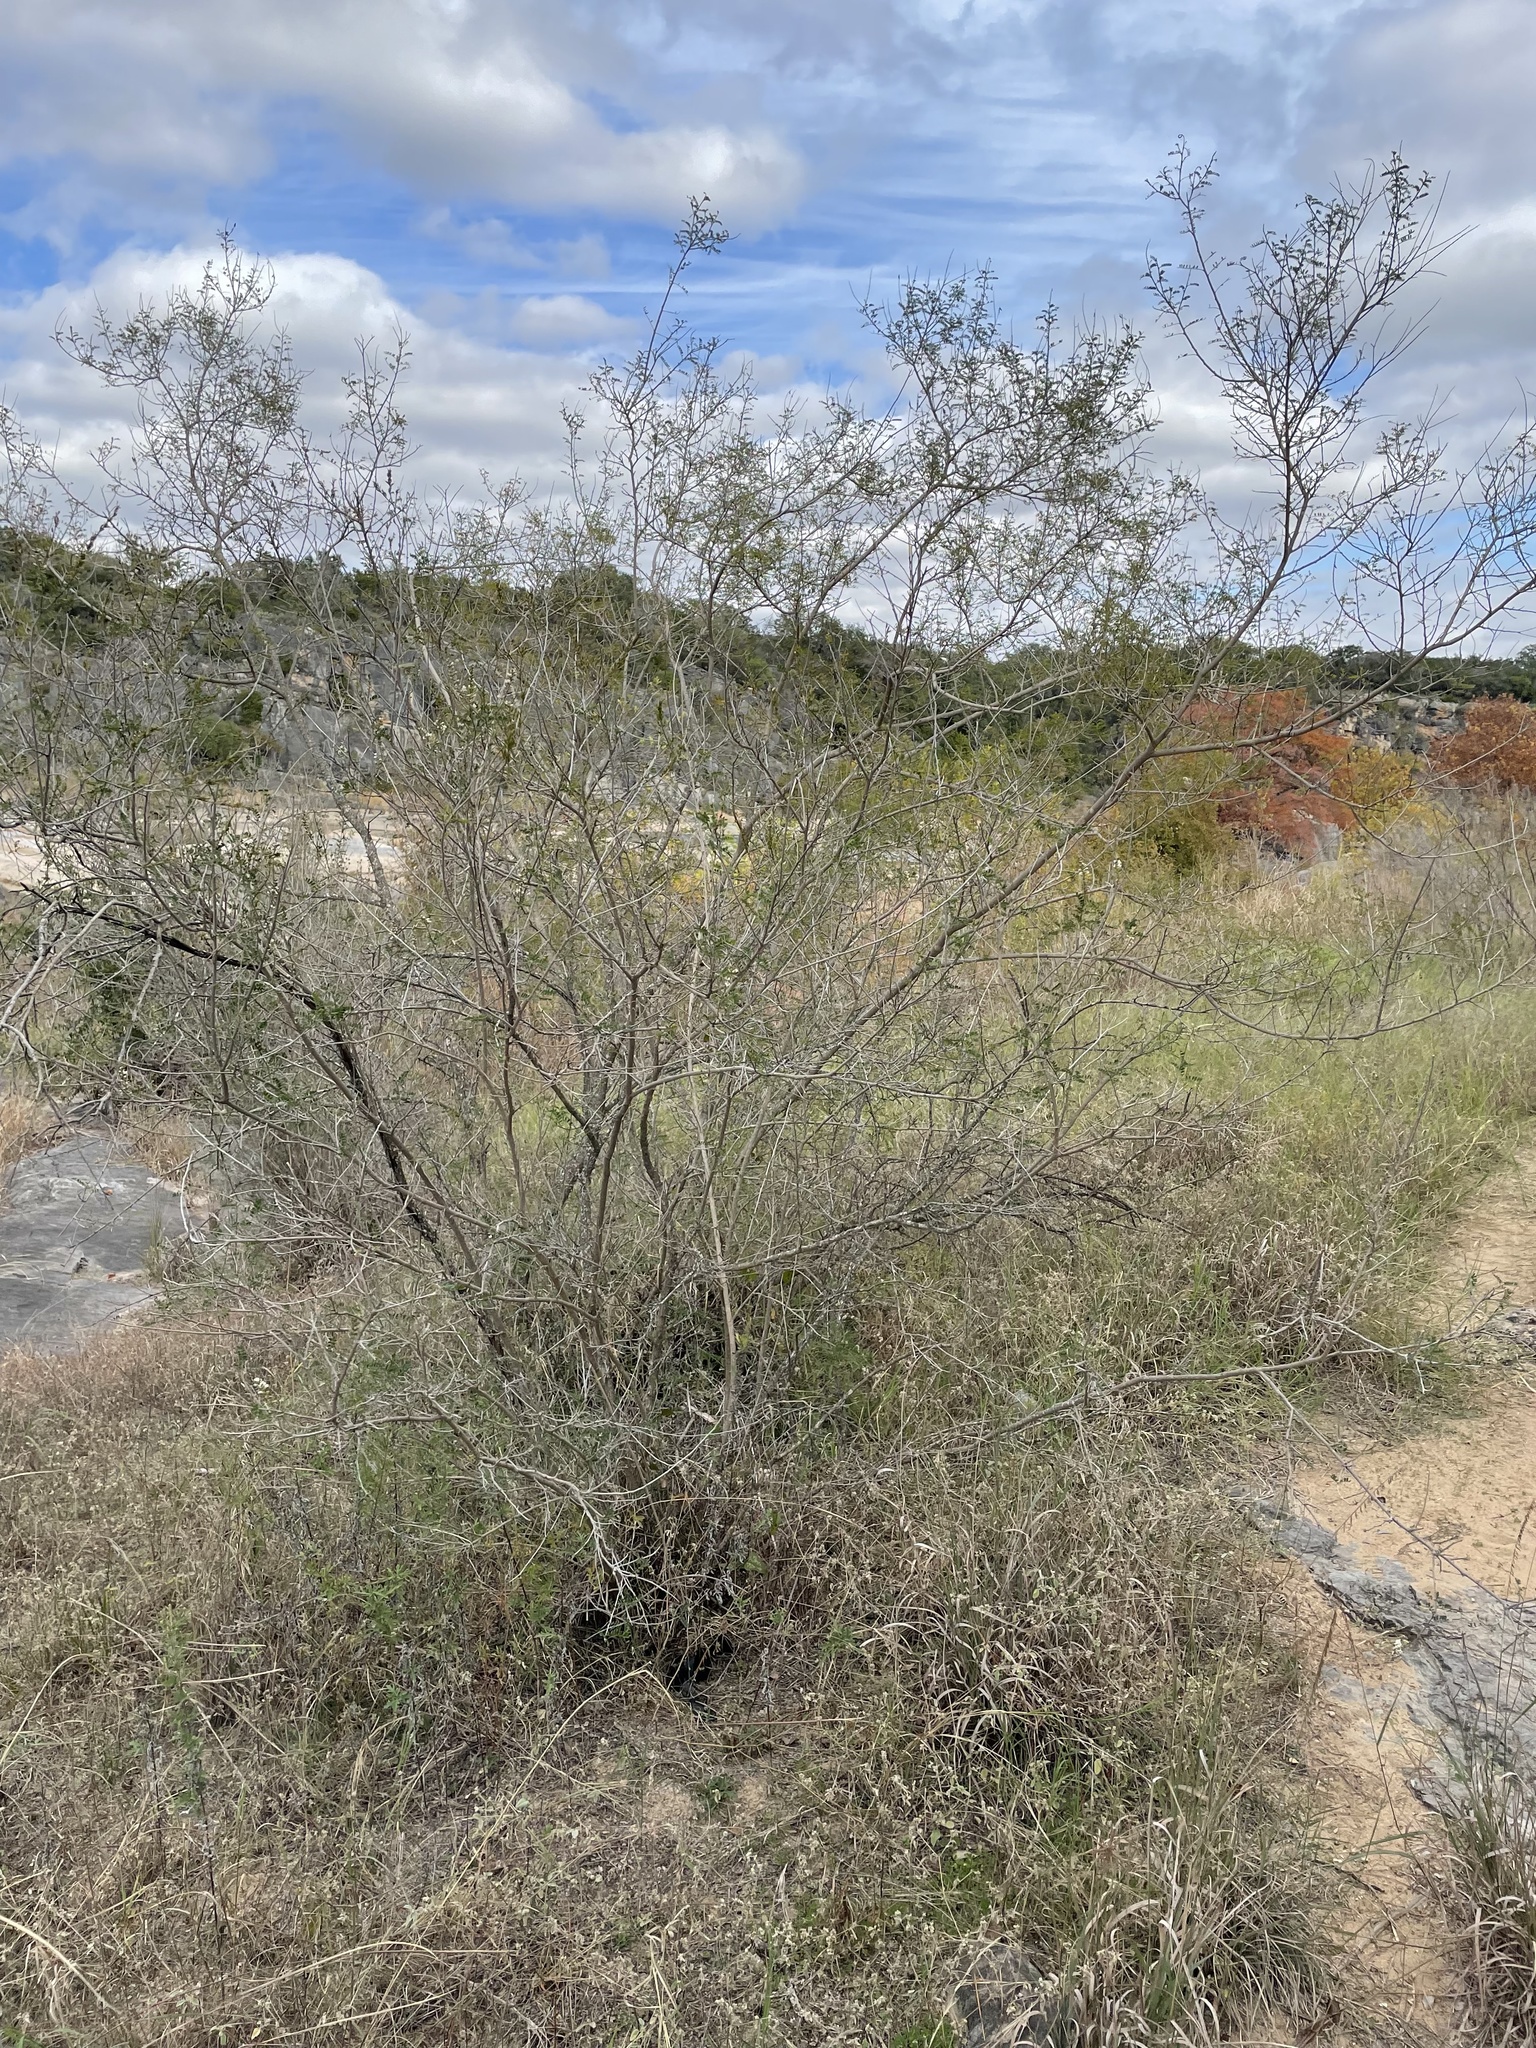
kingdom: Plantae
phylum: Tracheophyta
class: Magnoliopsida
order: Fabales
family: Fabaceae
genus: Eysenhardtia
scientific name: Eysenhardtia texana
